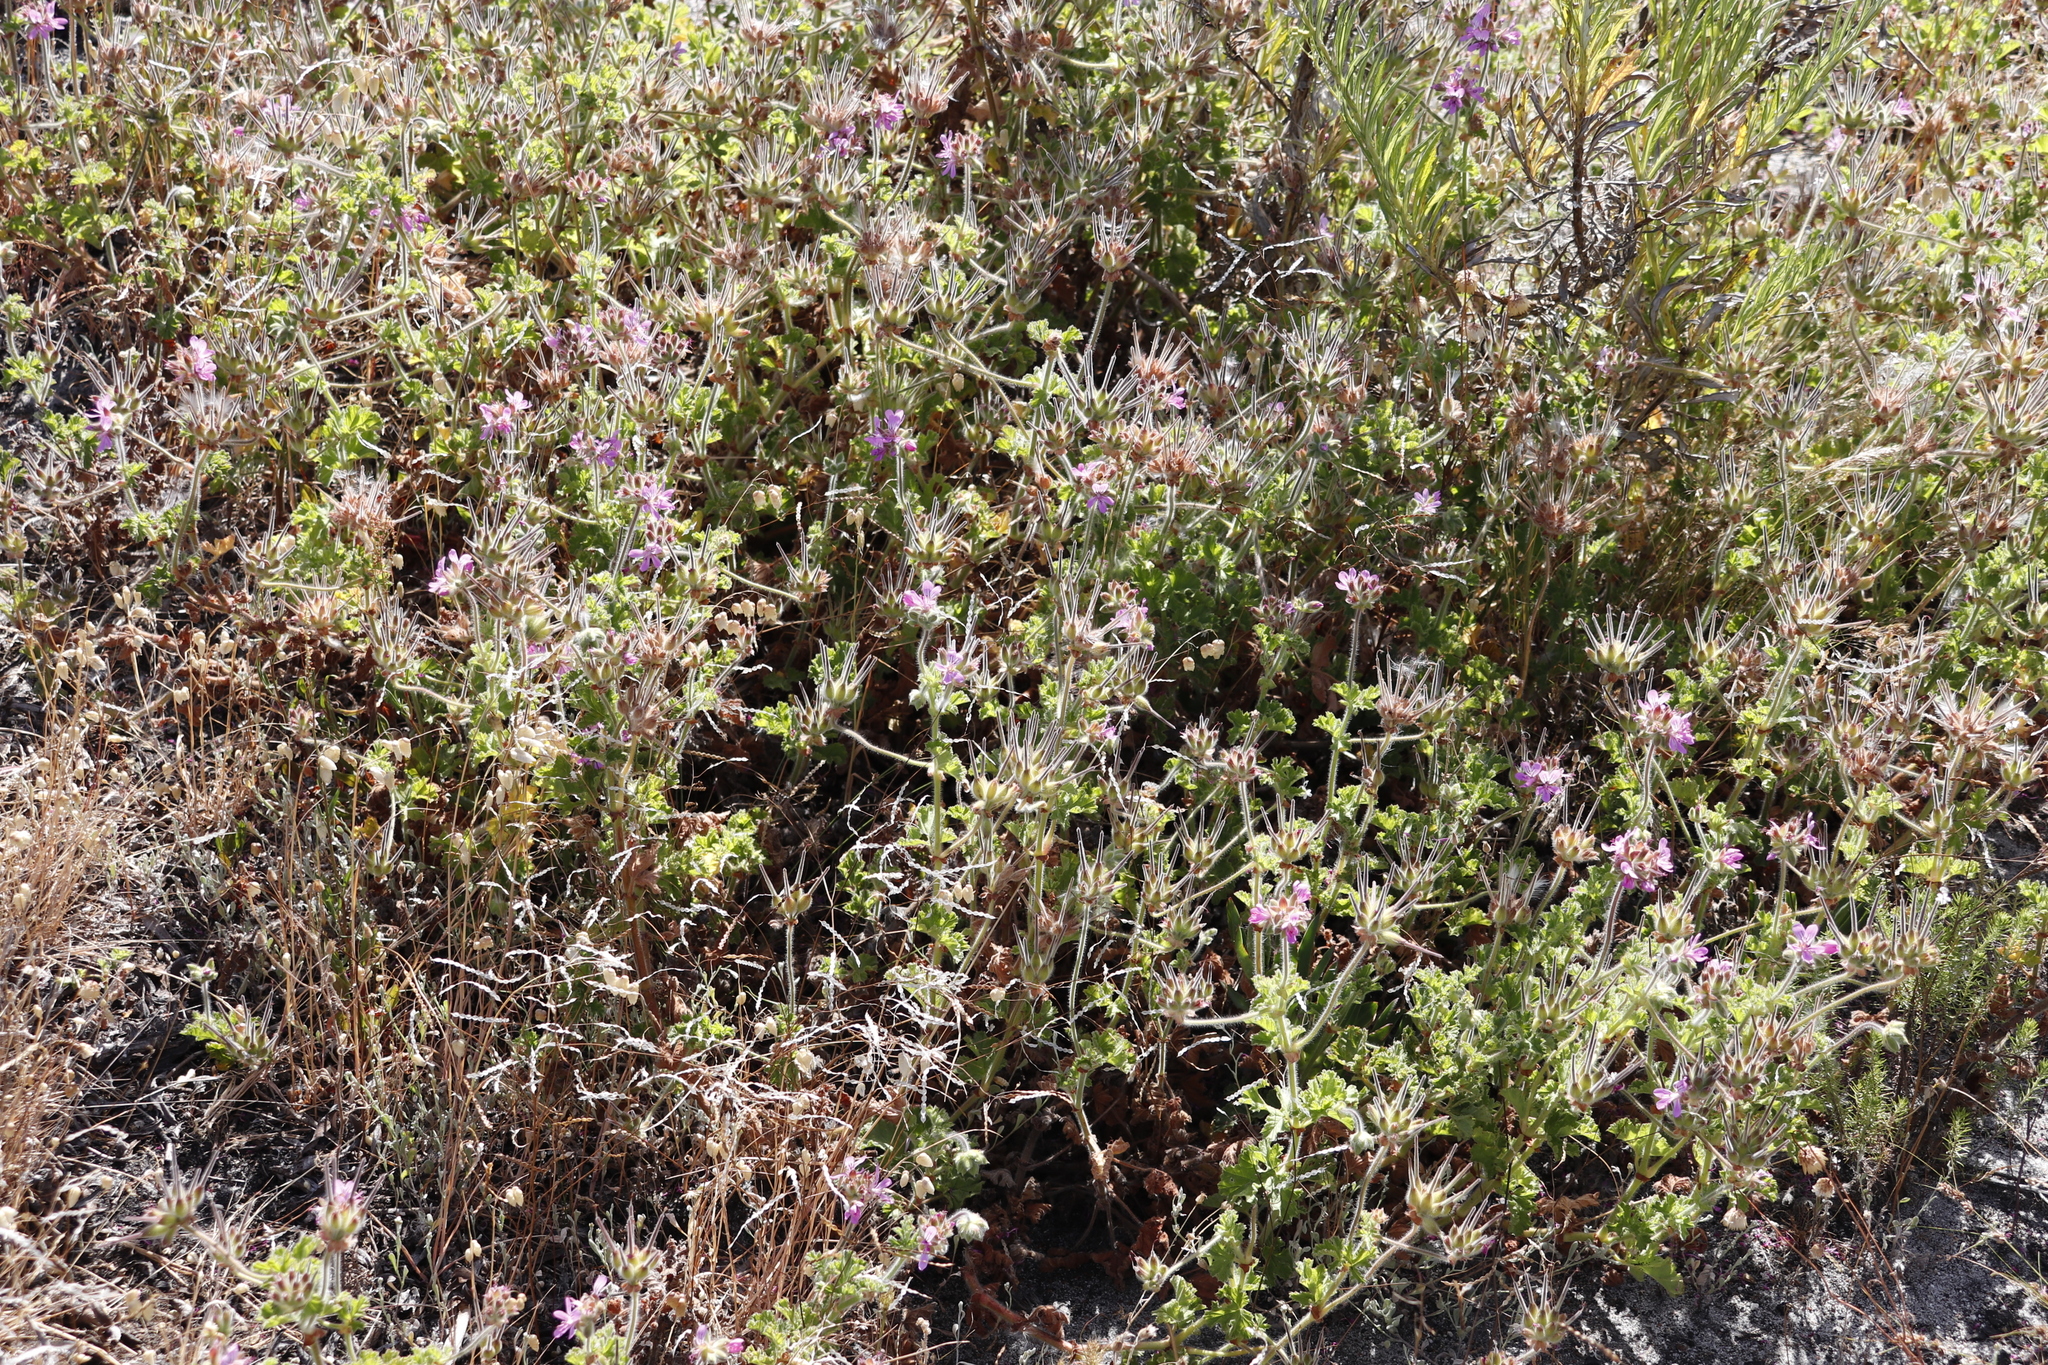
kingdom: Plantae
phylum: Tracheophyta
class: Magnoliopsida
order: Geraniales
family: Geraniaceae
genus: Pelargonium
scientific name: Pelargonium capitatum
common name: Rose scented geranium
